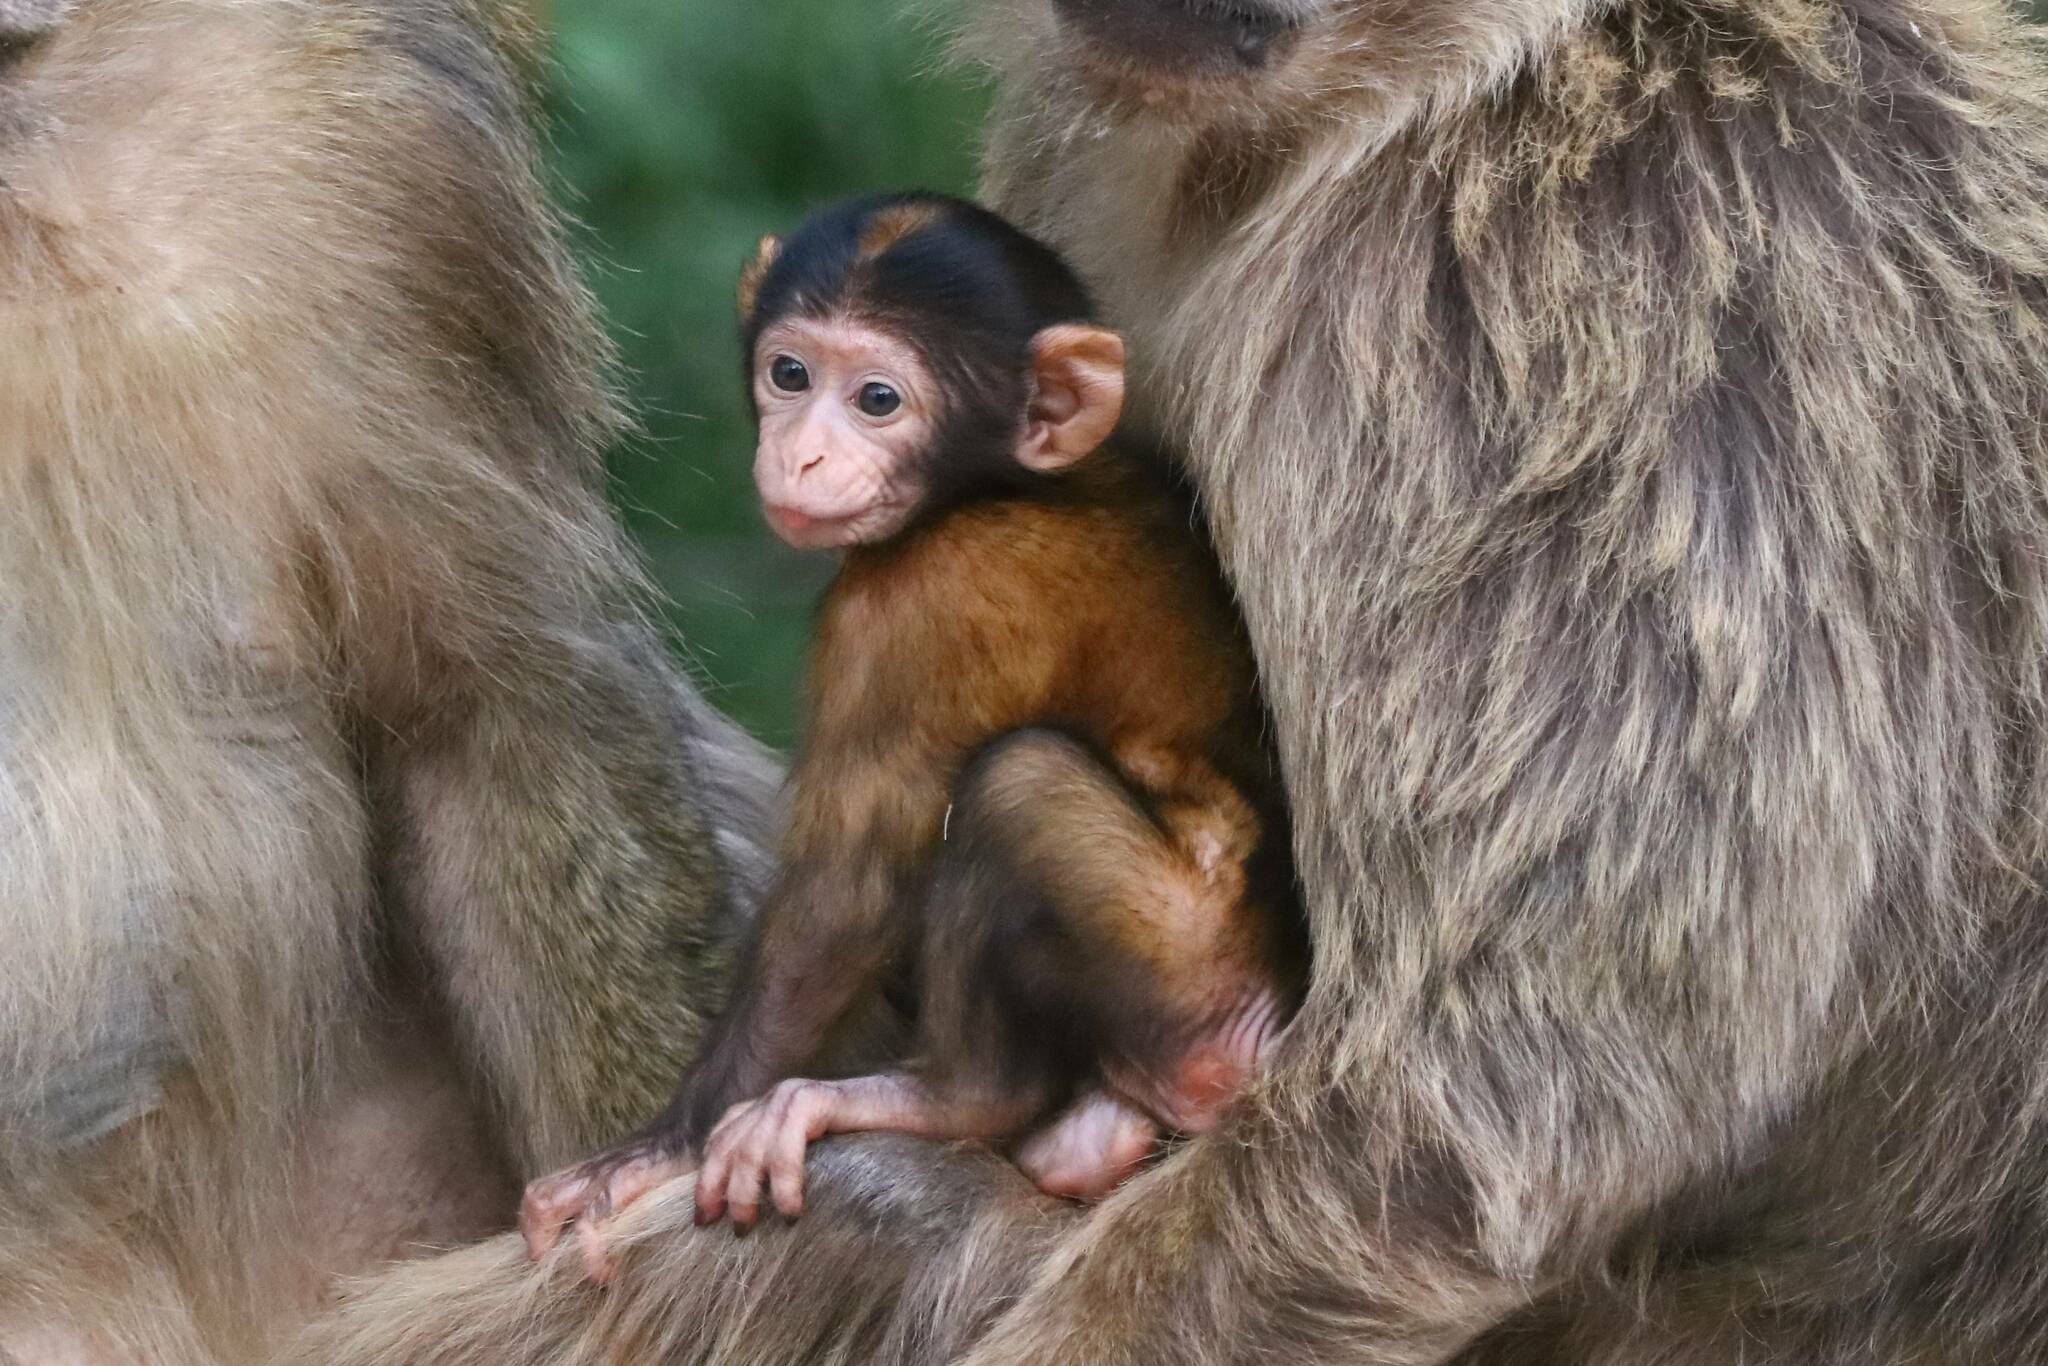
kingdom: Animalia
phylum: Chordata
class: Mammalia
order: Primates
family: Cercopithecidae
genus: Macaca
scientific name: Macaca sylvanus
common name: Barbary macaque
